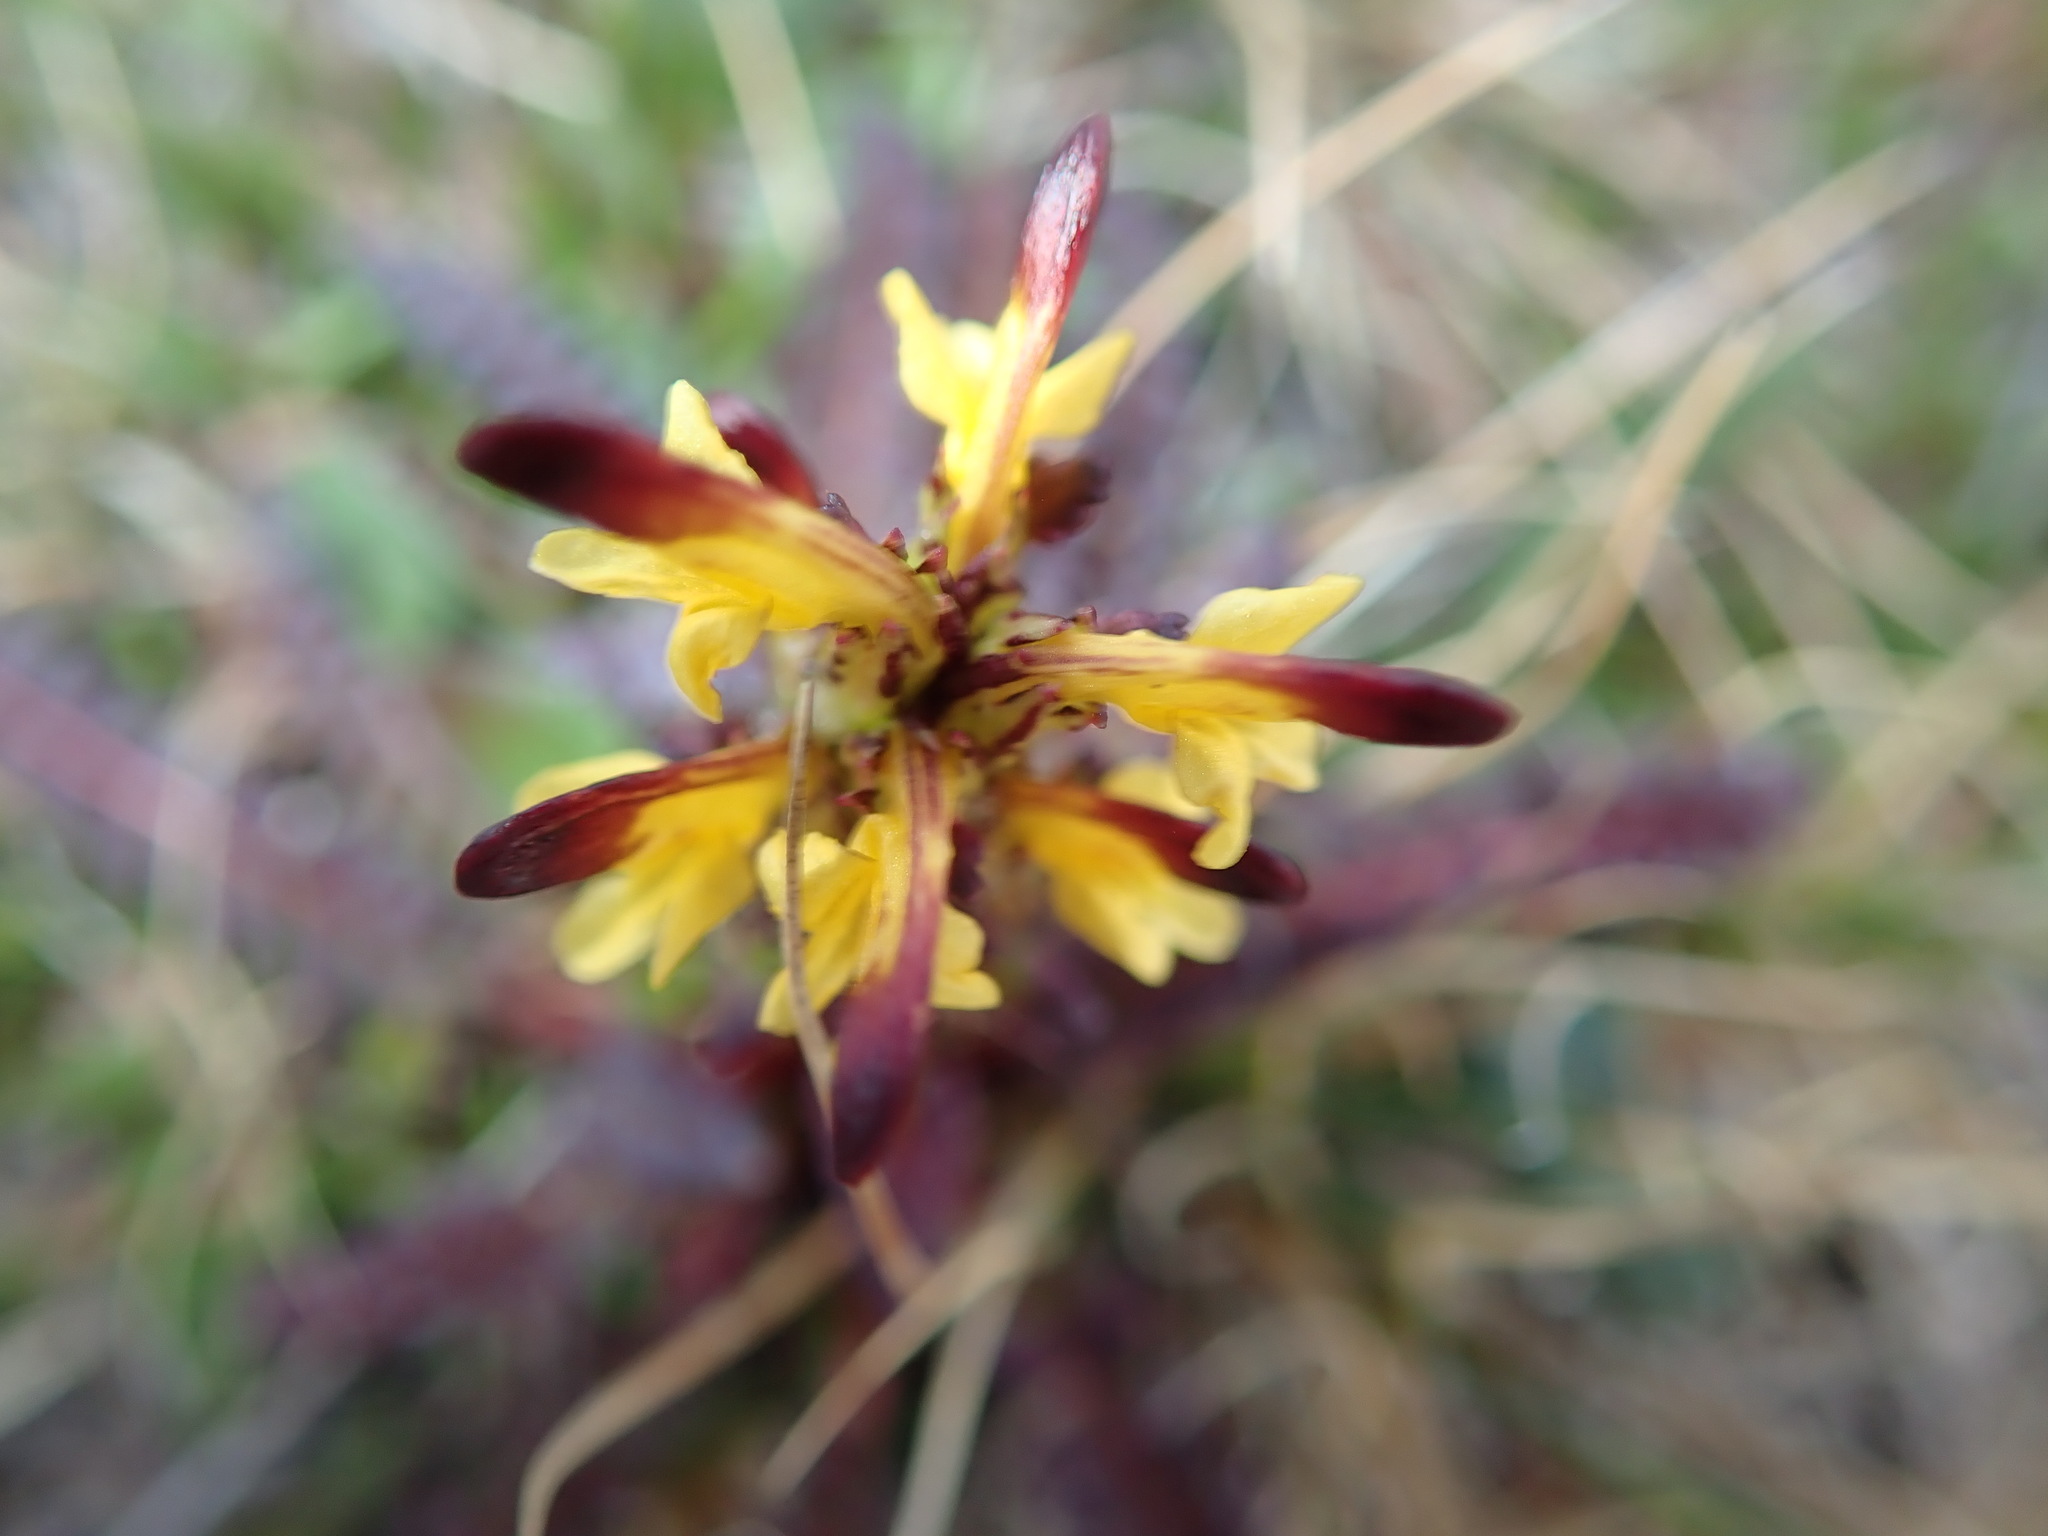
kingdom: Plantae
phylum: Tracheophyta
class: Magnoliopsida
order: Lamiales
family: Orobanchaceae
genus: Pedicularis
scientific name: Pedicularis flammea
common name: Flame-coloured lousewort
